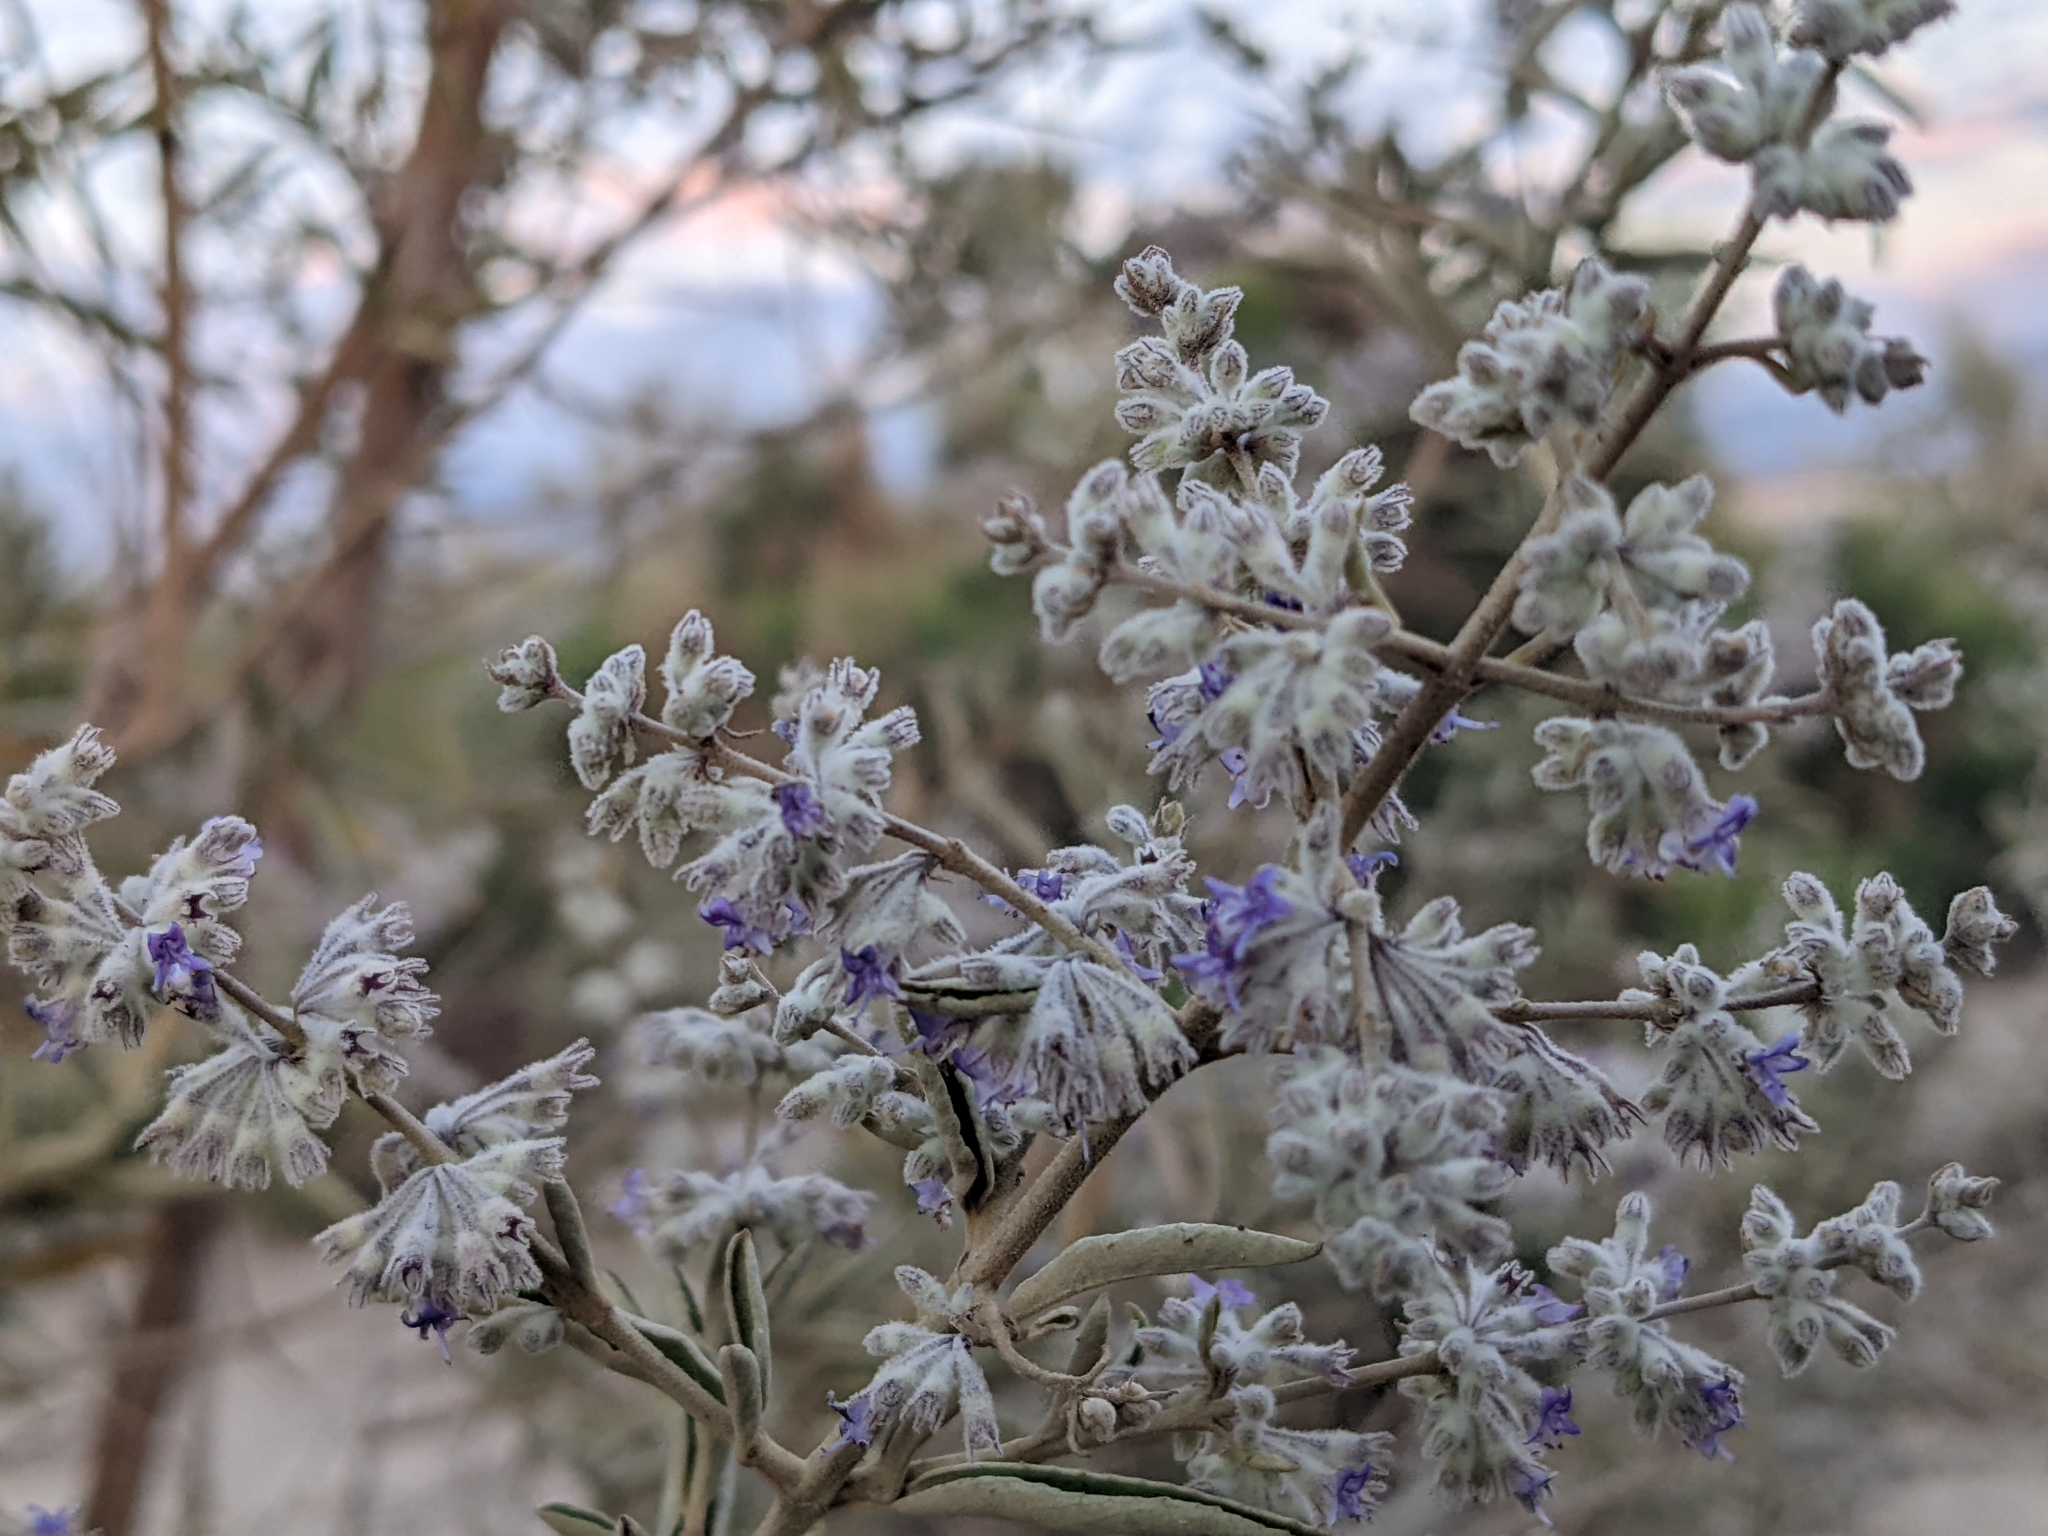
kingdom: Plantae
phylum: Tracheophyta
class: Magnoliopsida
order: Lamiales
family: Lamiaceae
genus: Condea
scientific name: Condea tephrodes
